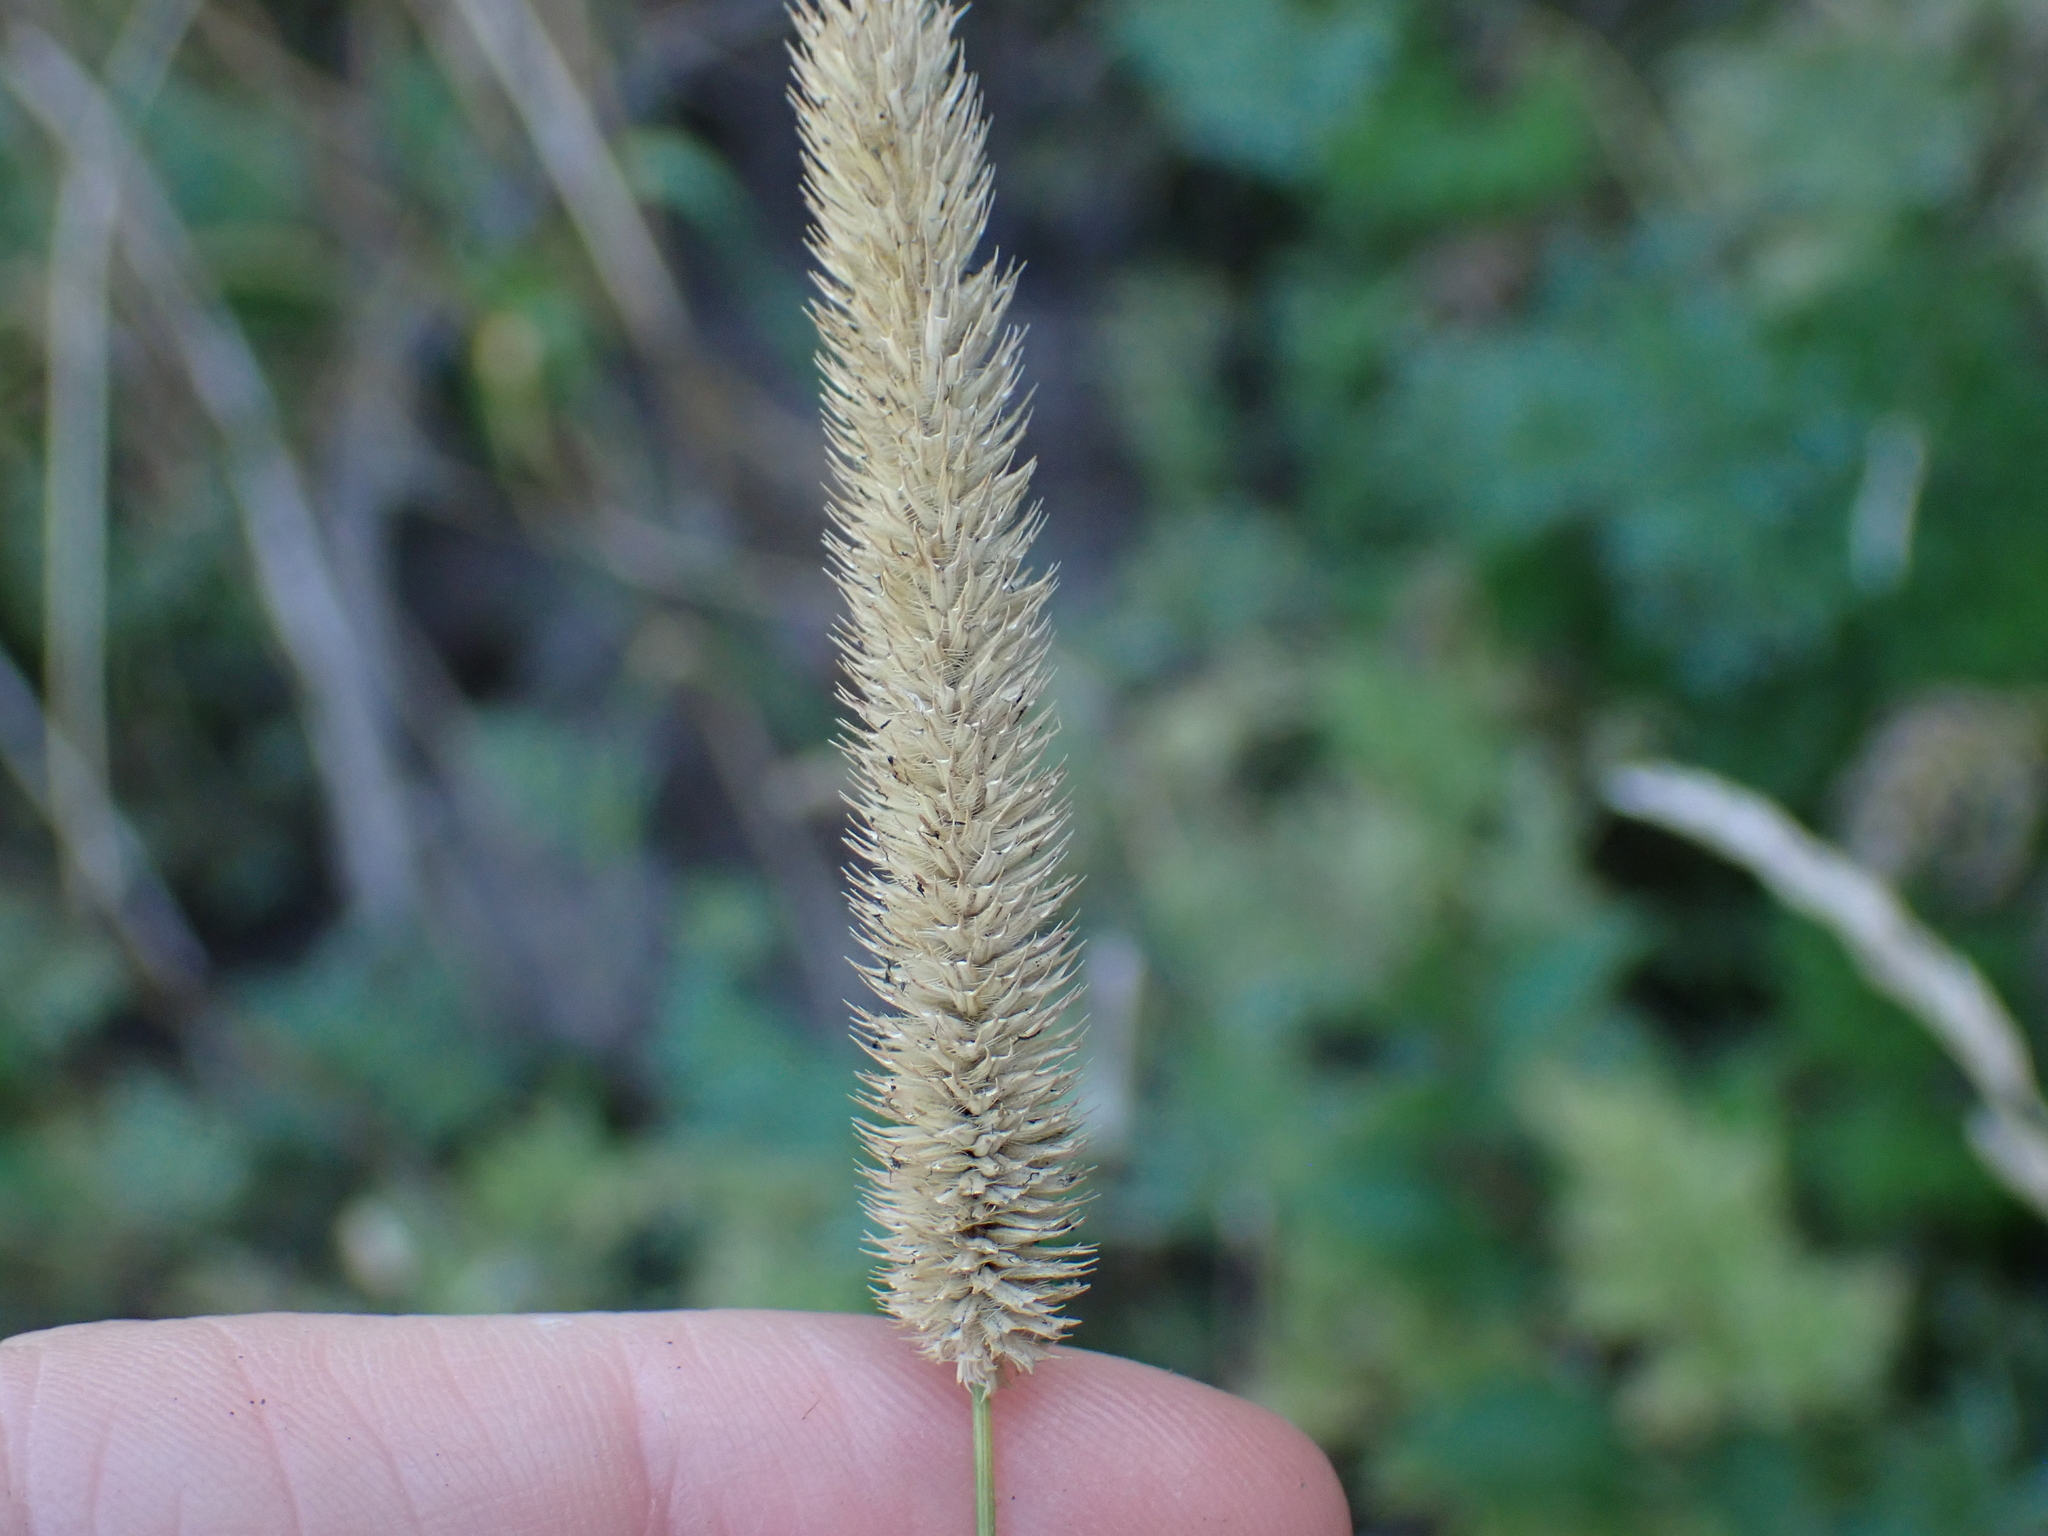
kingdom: Plantae
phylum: Tracheophyta
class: Liliopsida
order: Poales
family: Poaceae
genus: Phleum
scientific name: Phleum pratense
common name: Timothy grass
